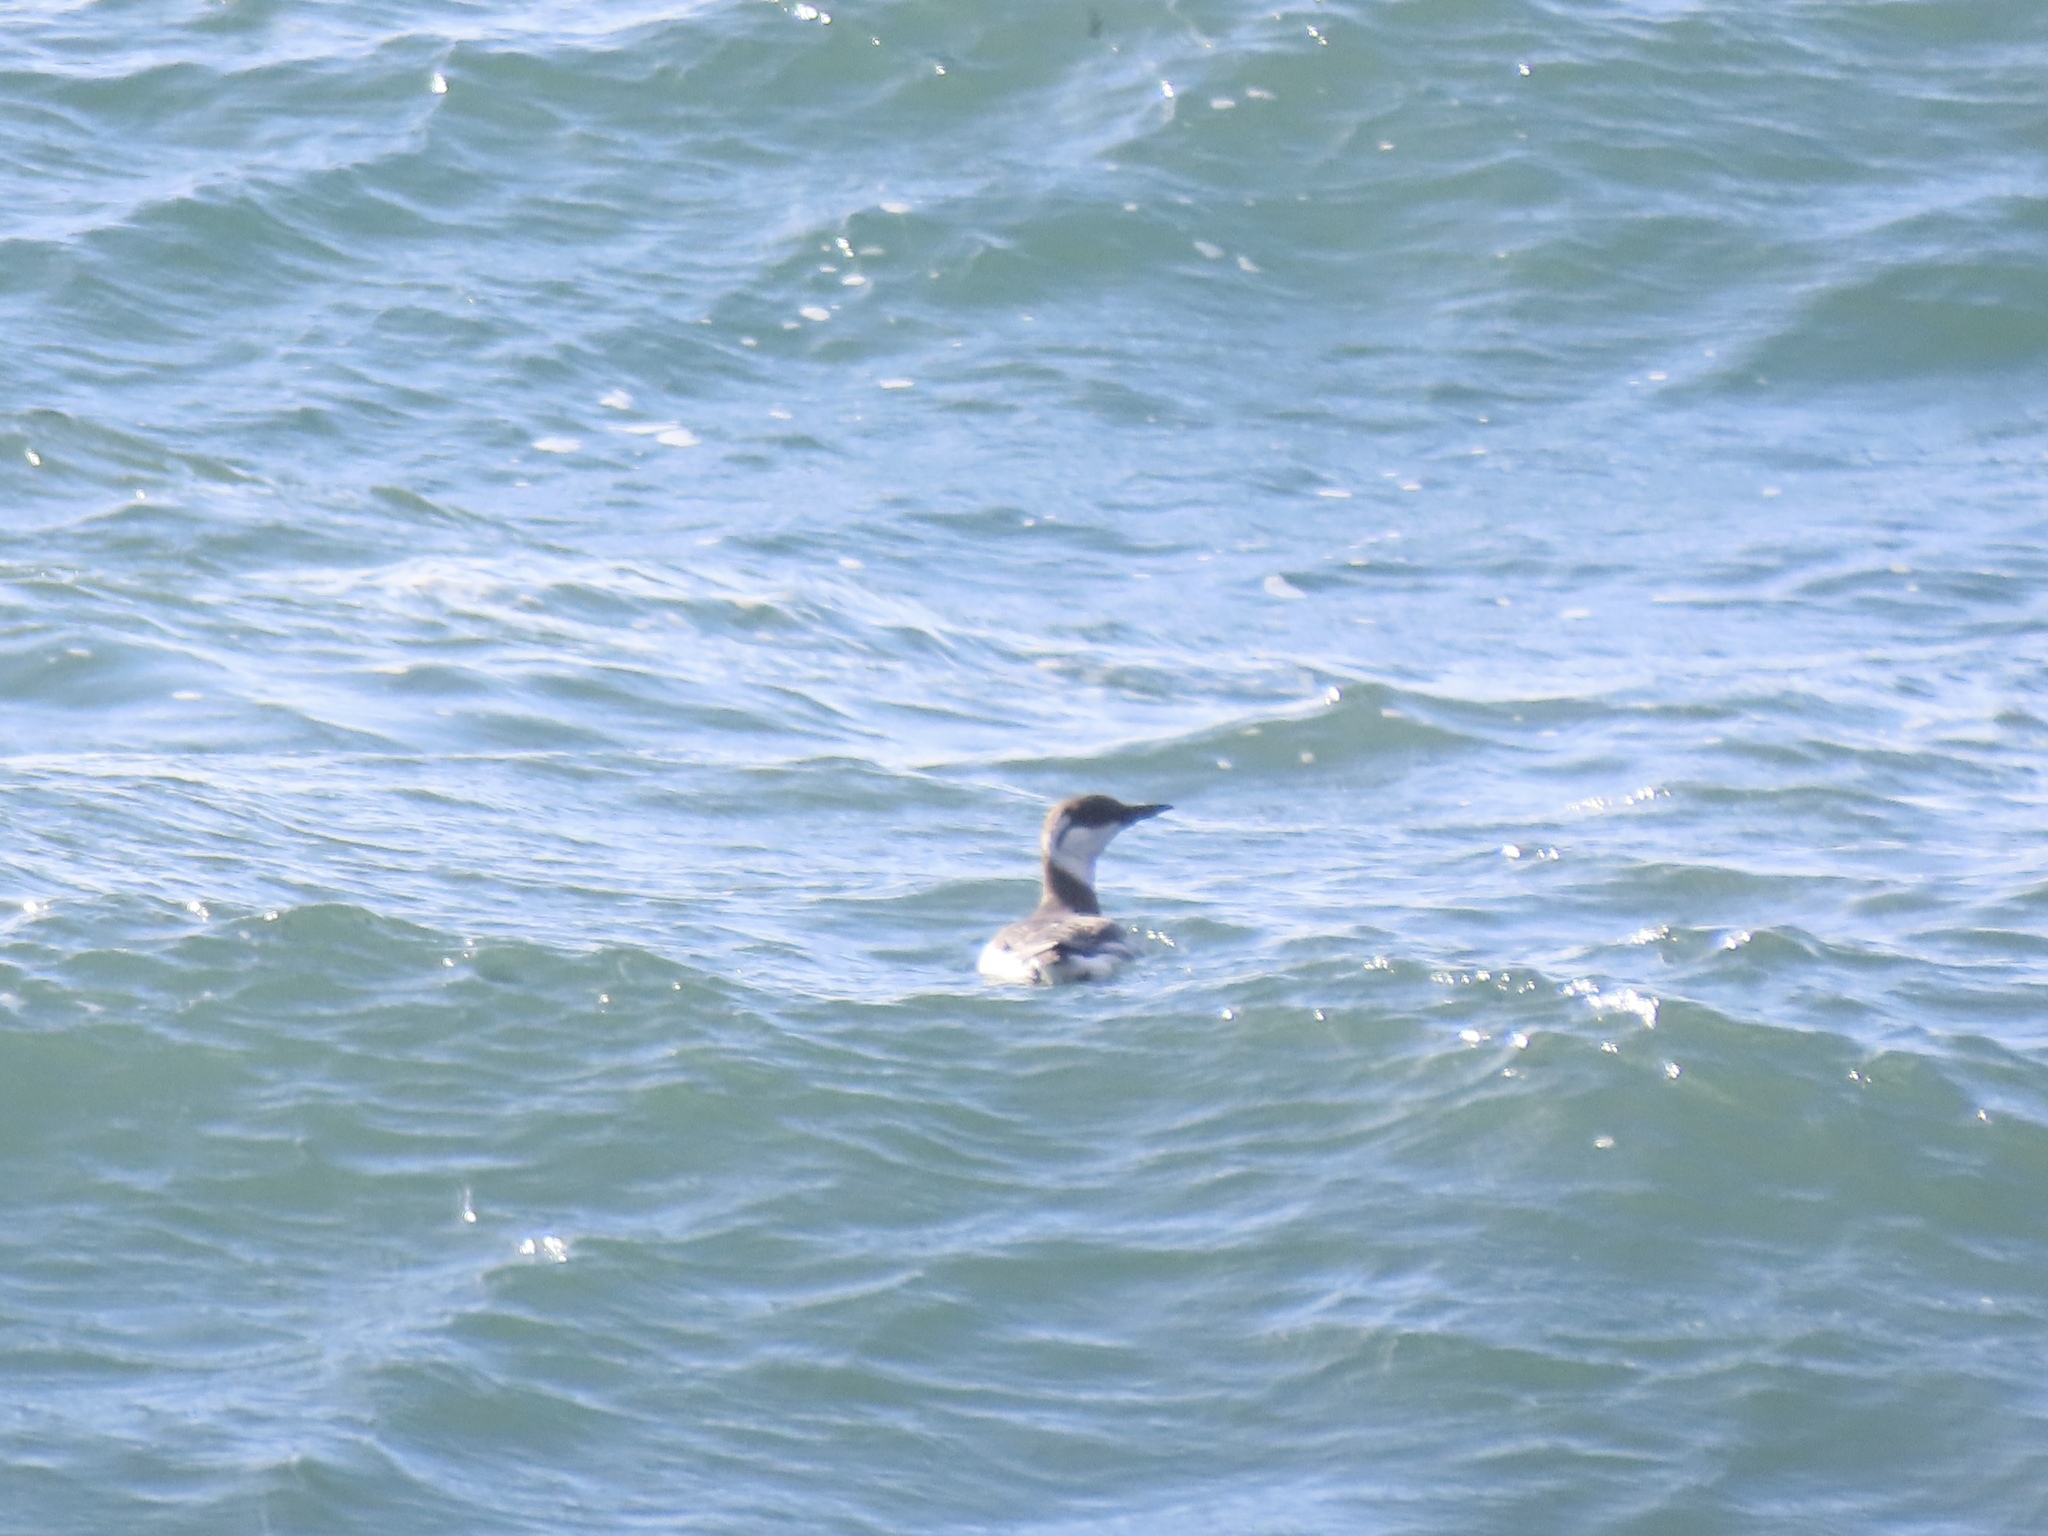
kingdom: Animalia
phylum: Chordata
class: Aves
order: Charadriiformes
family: Alcidae
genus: Uria
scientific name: Uria aalge
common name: Common murre
